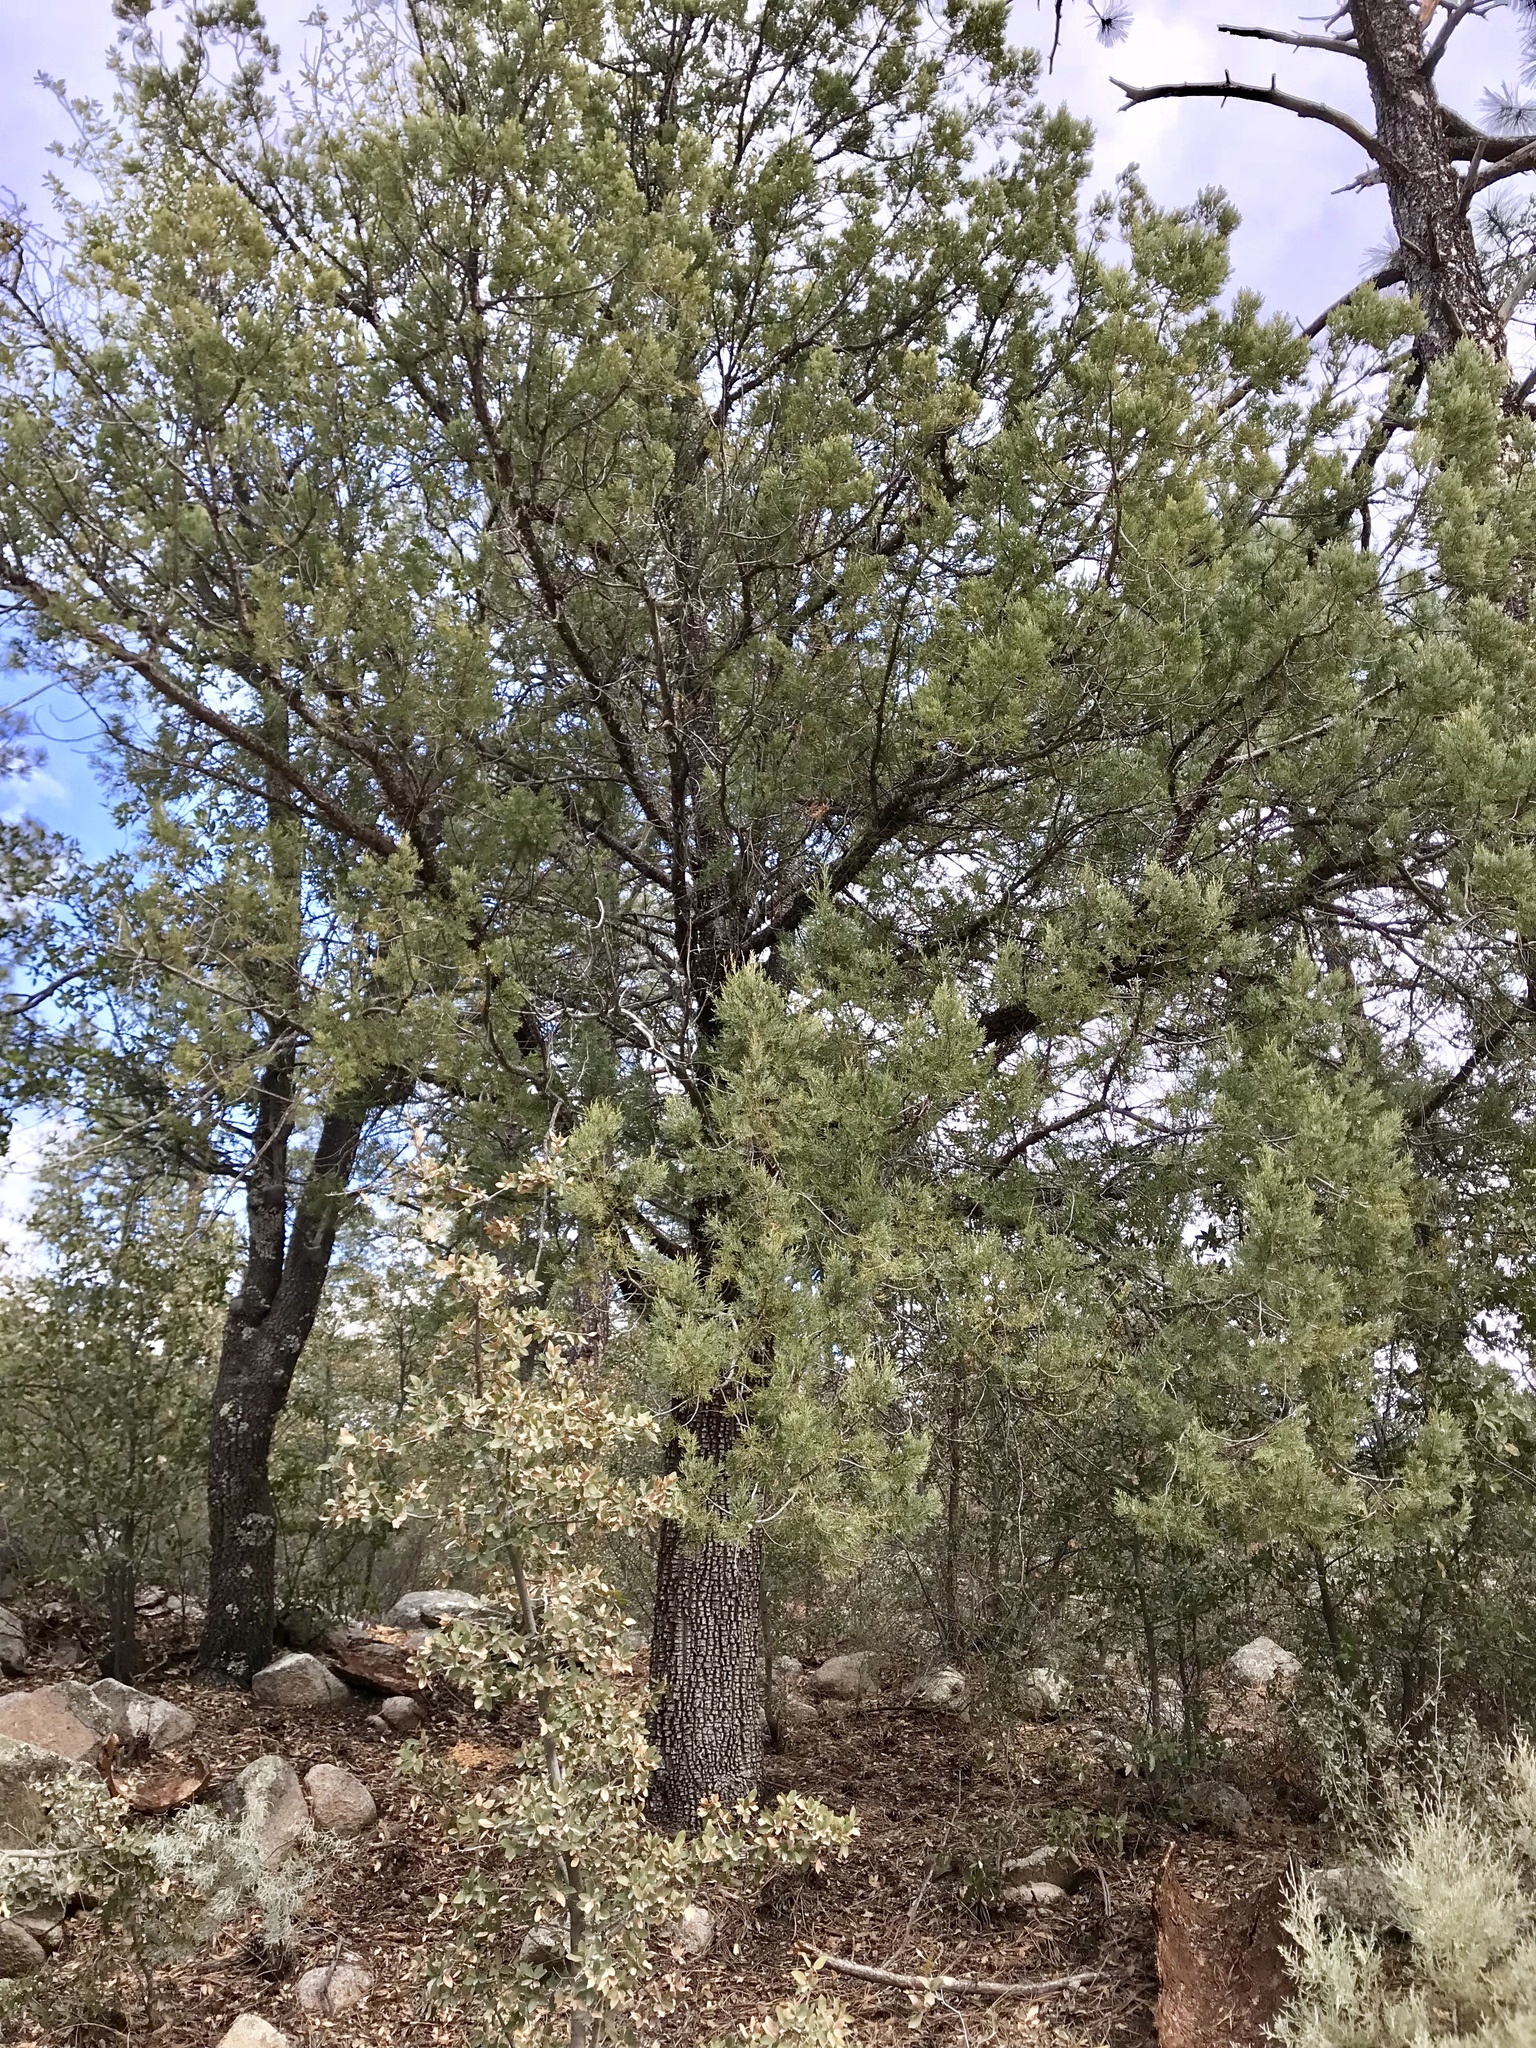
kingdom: Plantae
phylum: Tracheophyta
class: Pinopsida
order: Pinales
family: Cupressaceae
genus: Juniperus
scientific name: Juniperus deppeana
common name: Alligator juniper
